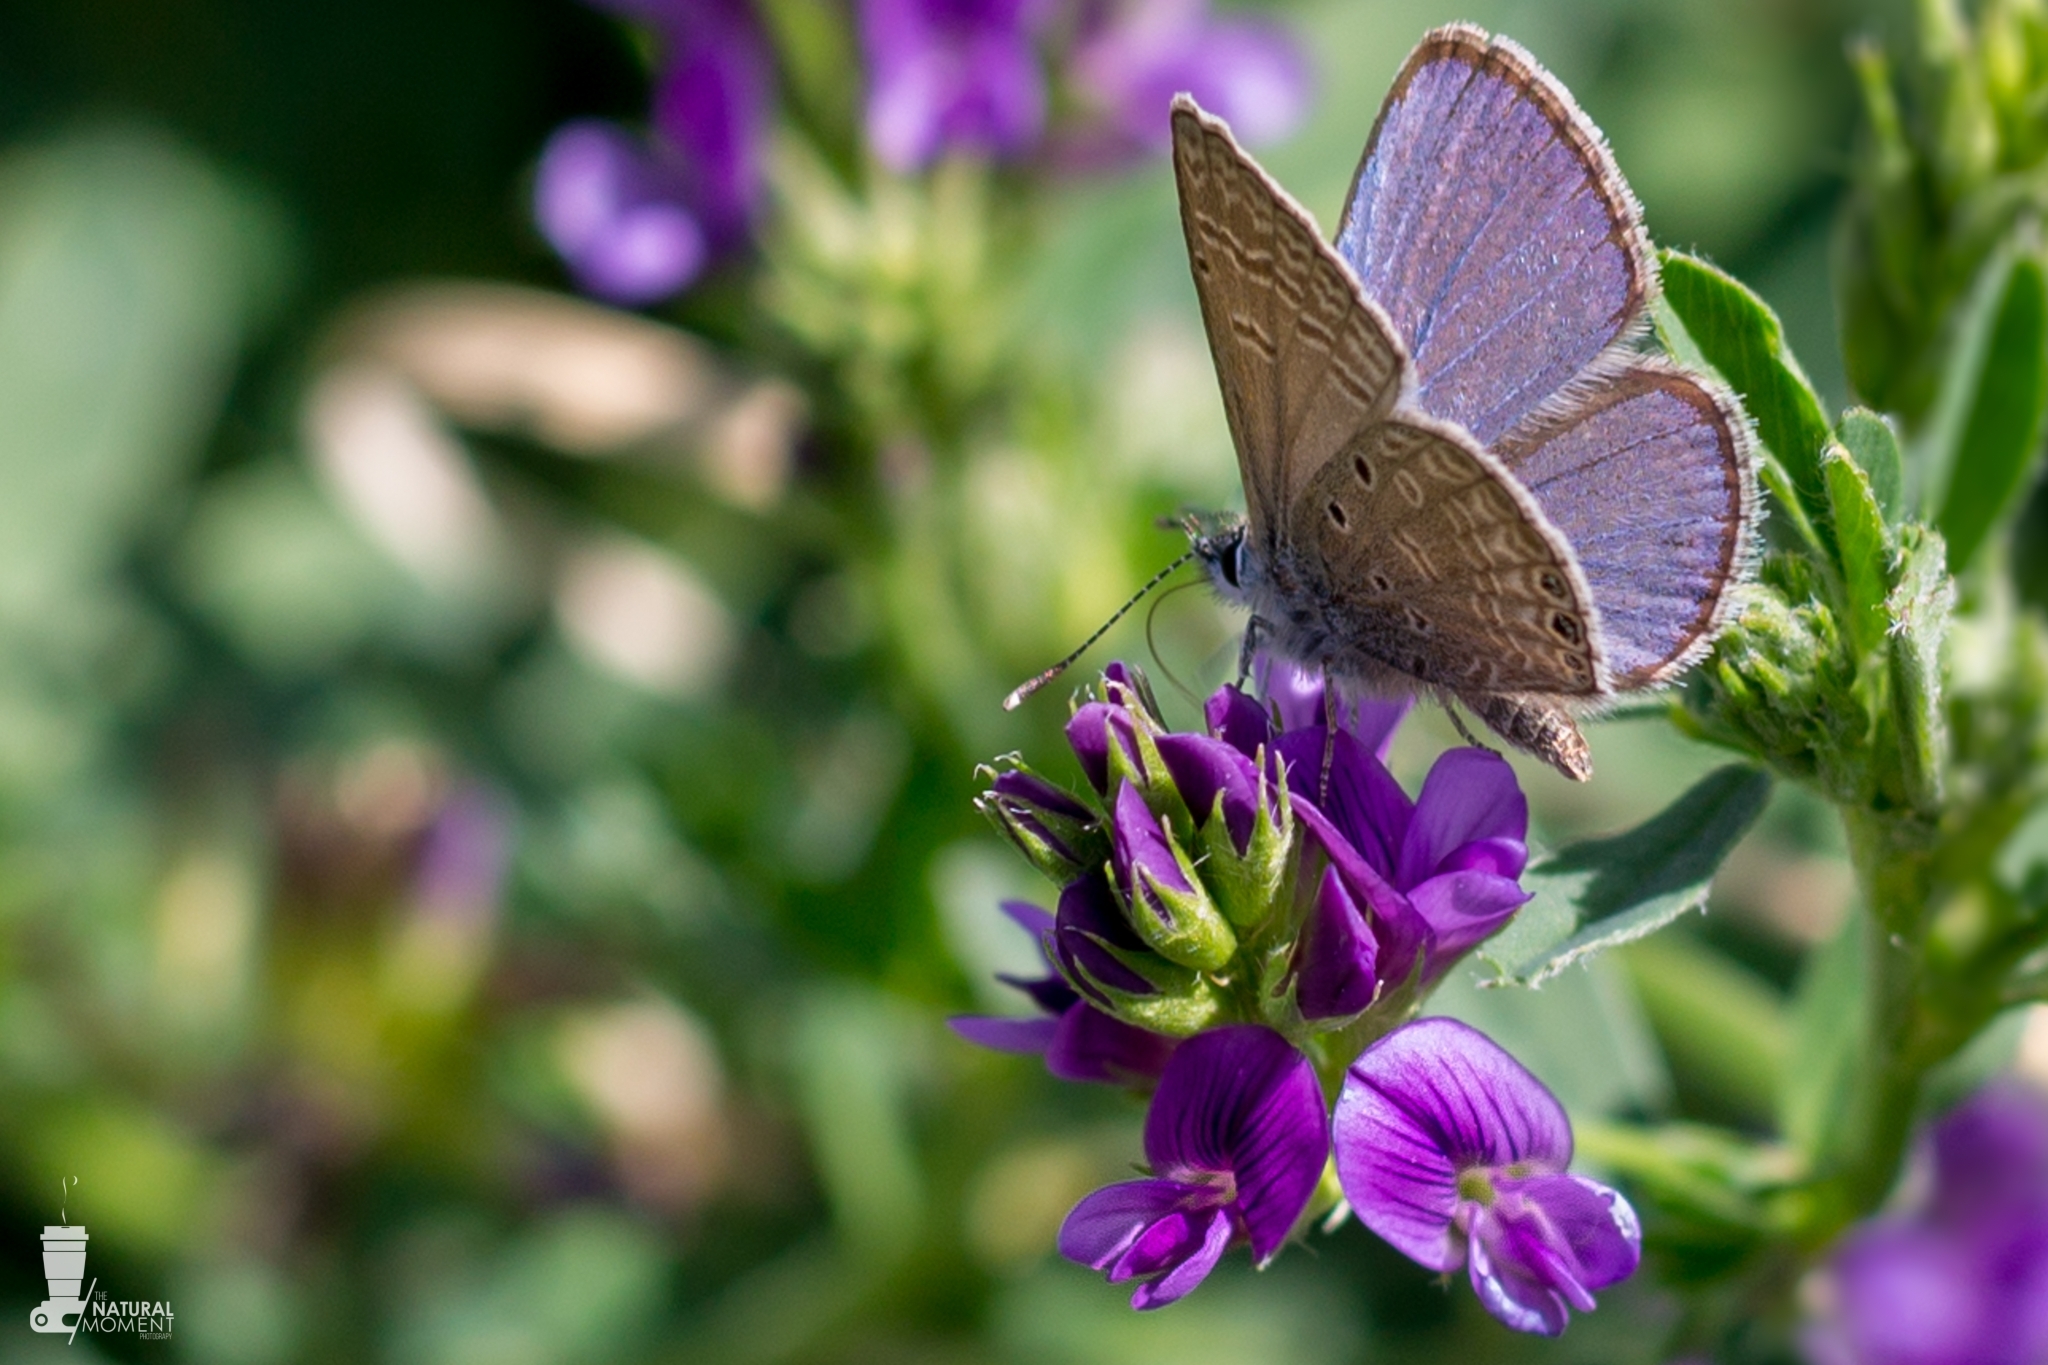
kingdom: Animalia
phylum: Arthropoda
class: Insecta
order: Lepidoptera
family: Lycaenidae
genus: Hemiargus
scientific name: Hemiargus ramon
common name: Ramon blue
